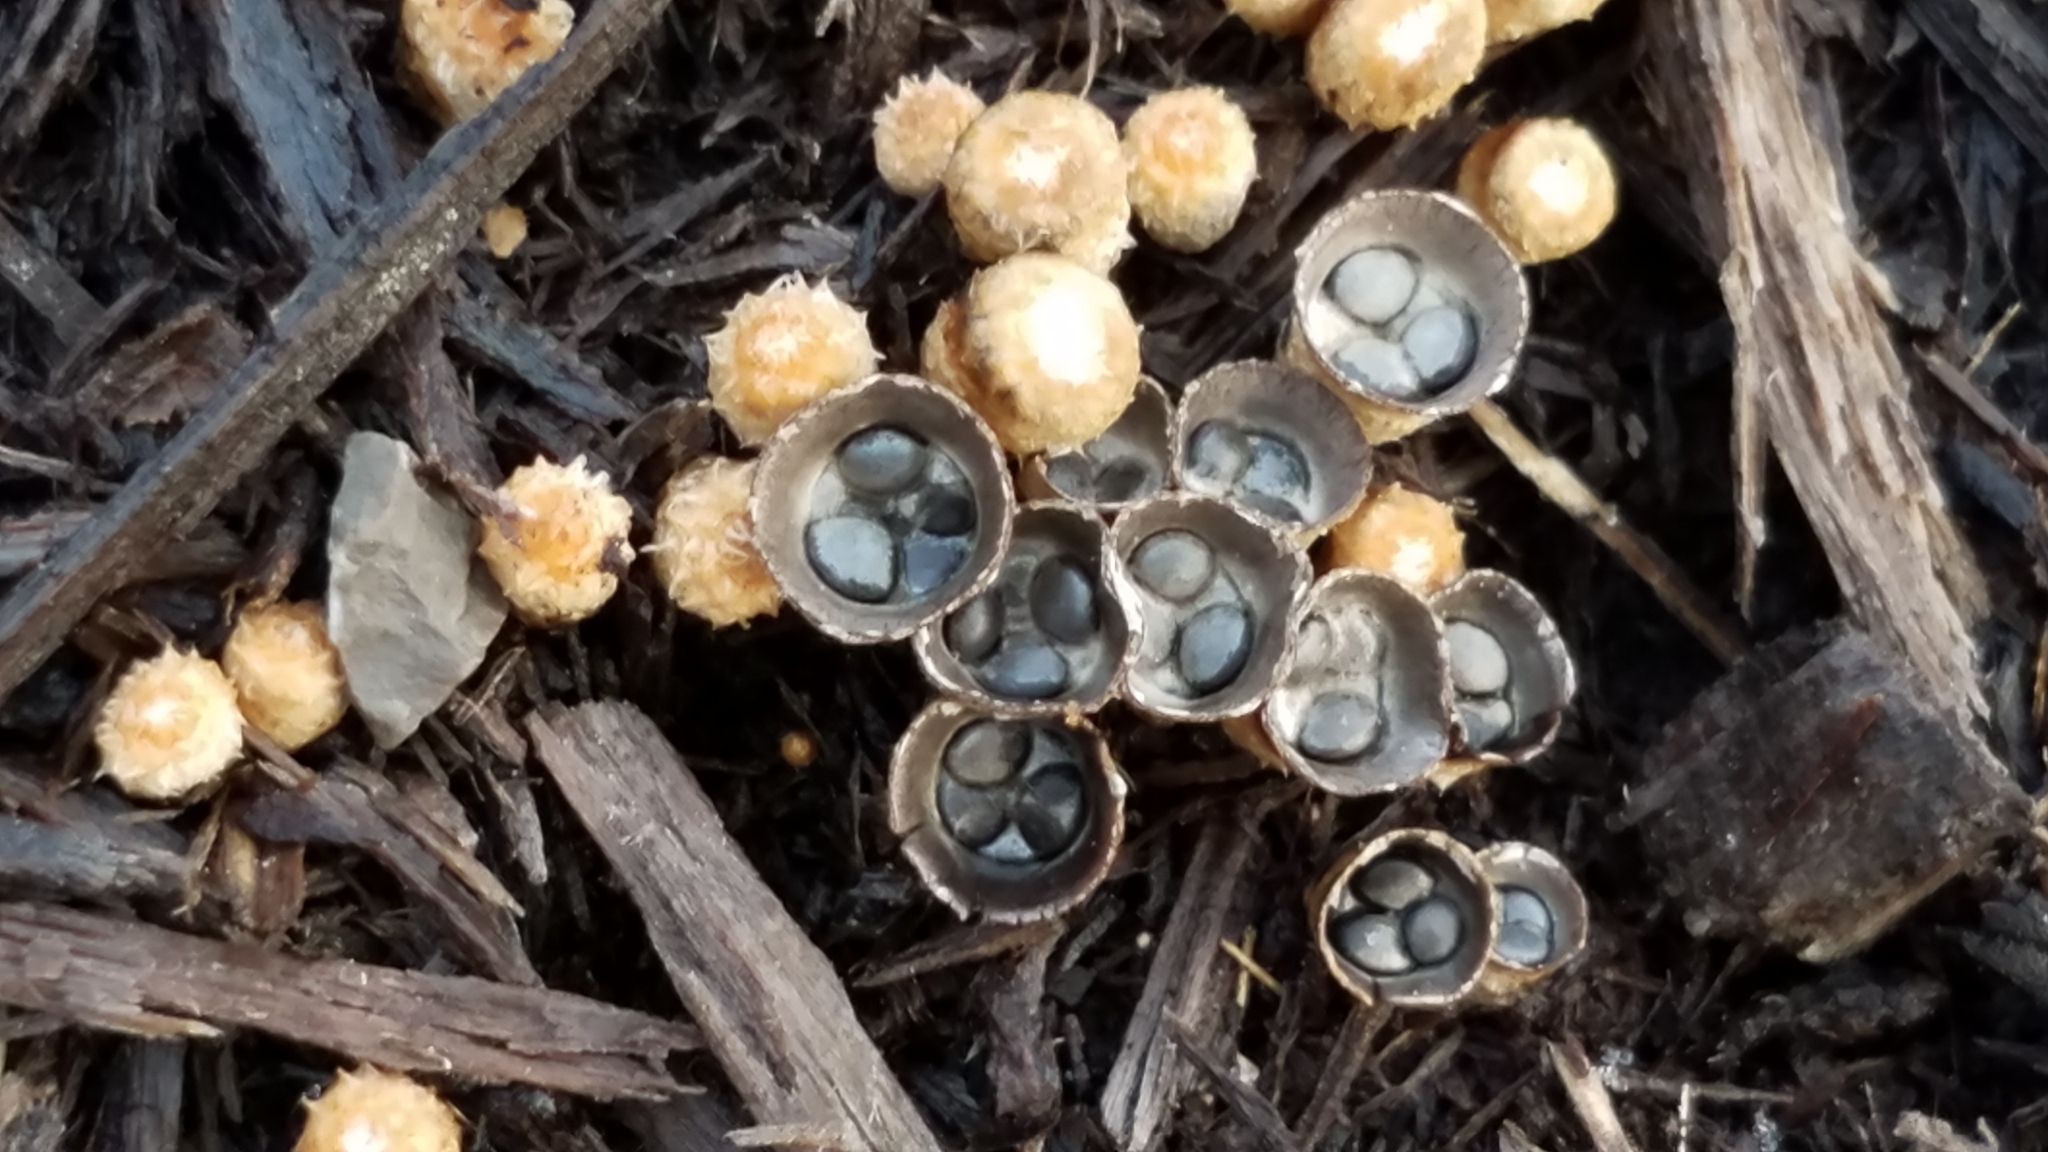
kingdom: Fungi
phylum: Basidiomycota
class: Agaricomycetes
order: Agaricales
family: Agaricaceae
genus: Cyathus
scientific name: Cyathus stercoreus
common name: Dung bird's nest
